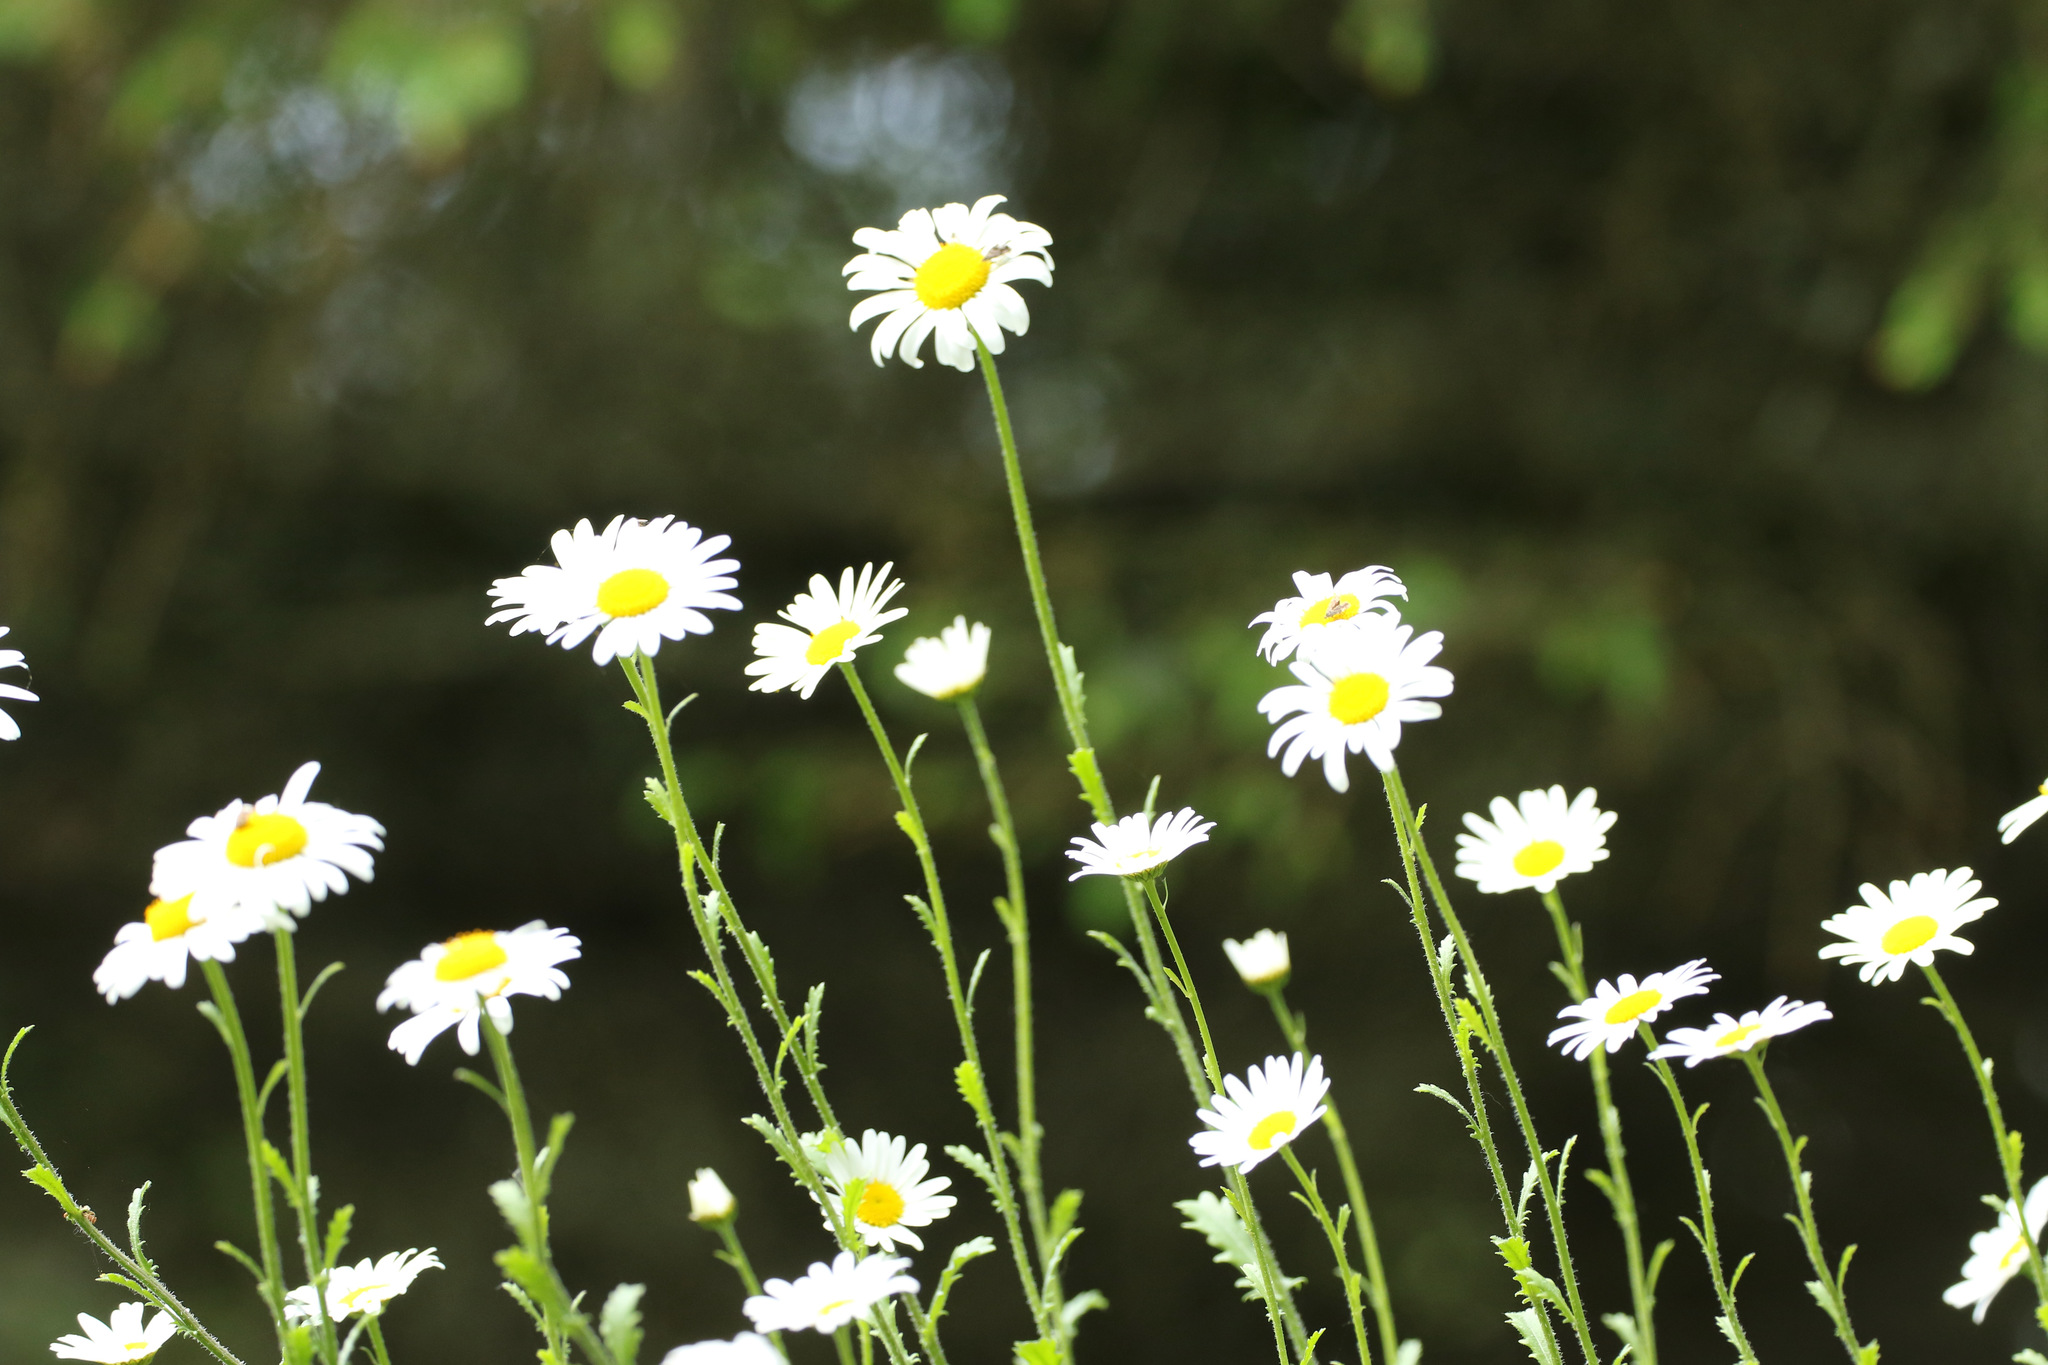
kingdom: Plantae
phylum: Tracheophyta
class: Magnoliopsida
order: Asterales
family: Asteraceae
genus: Leucanthemum
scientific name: Leucanthemum vulgare
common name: Oxeye daisy
